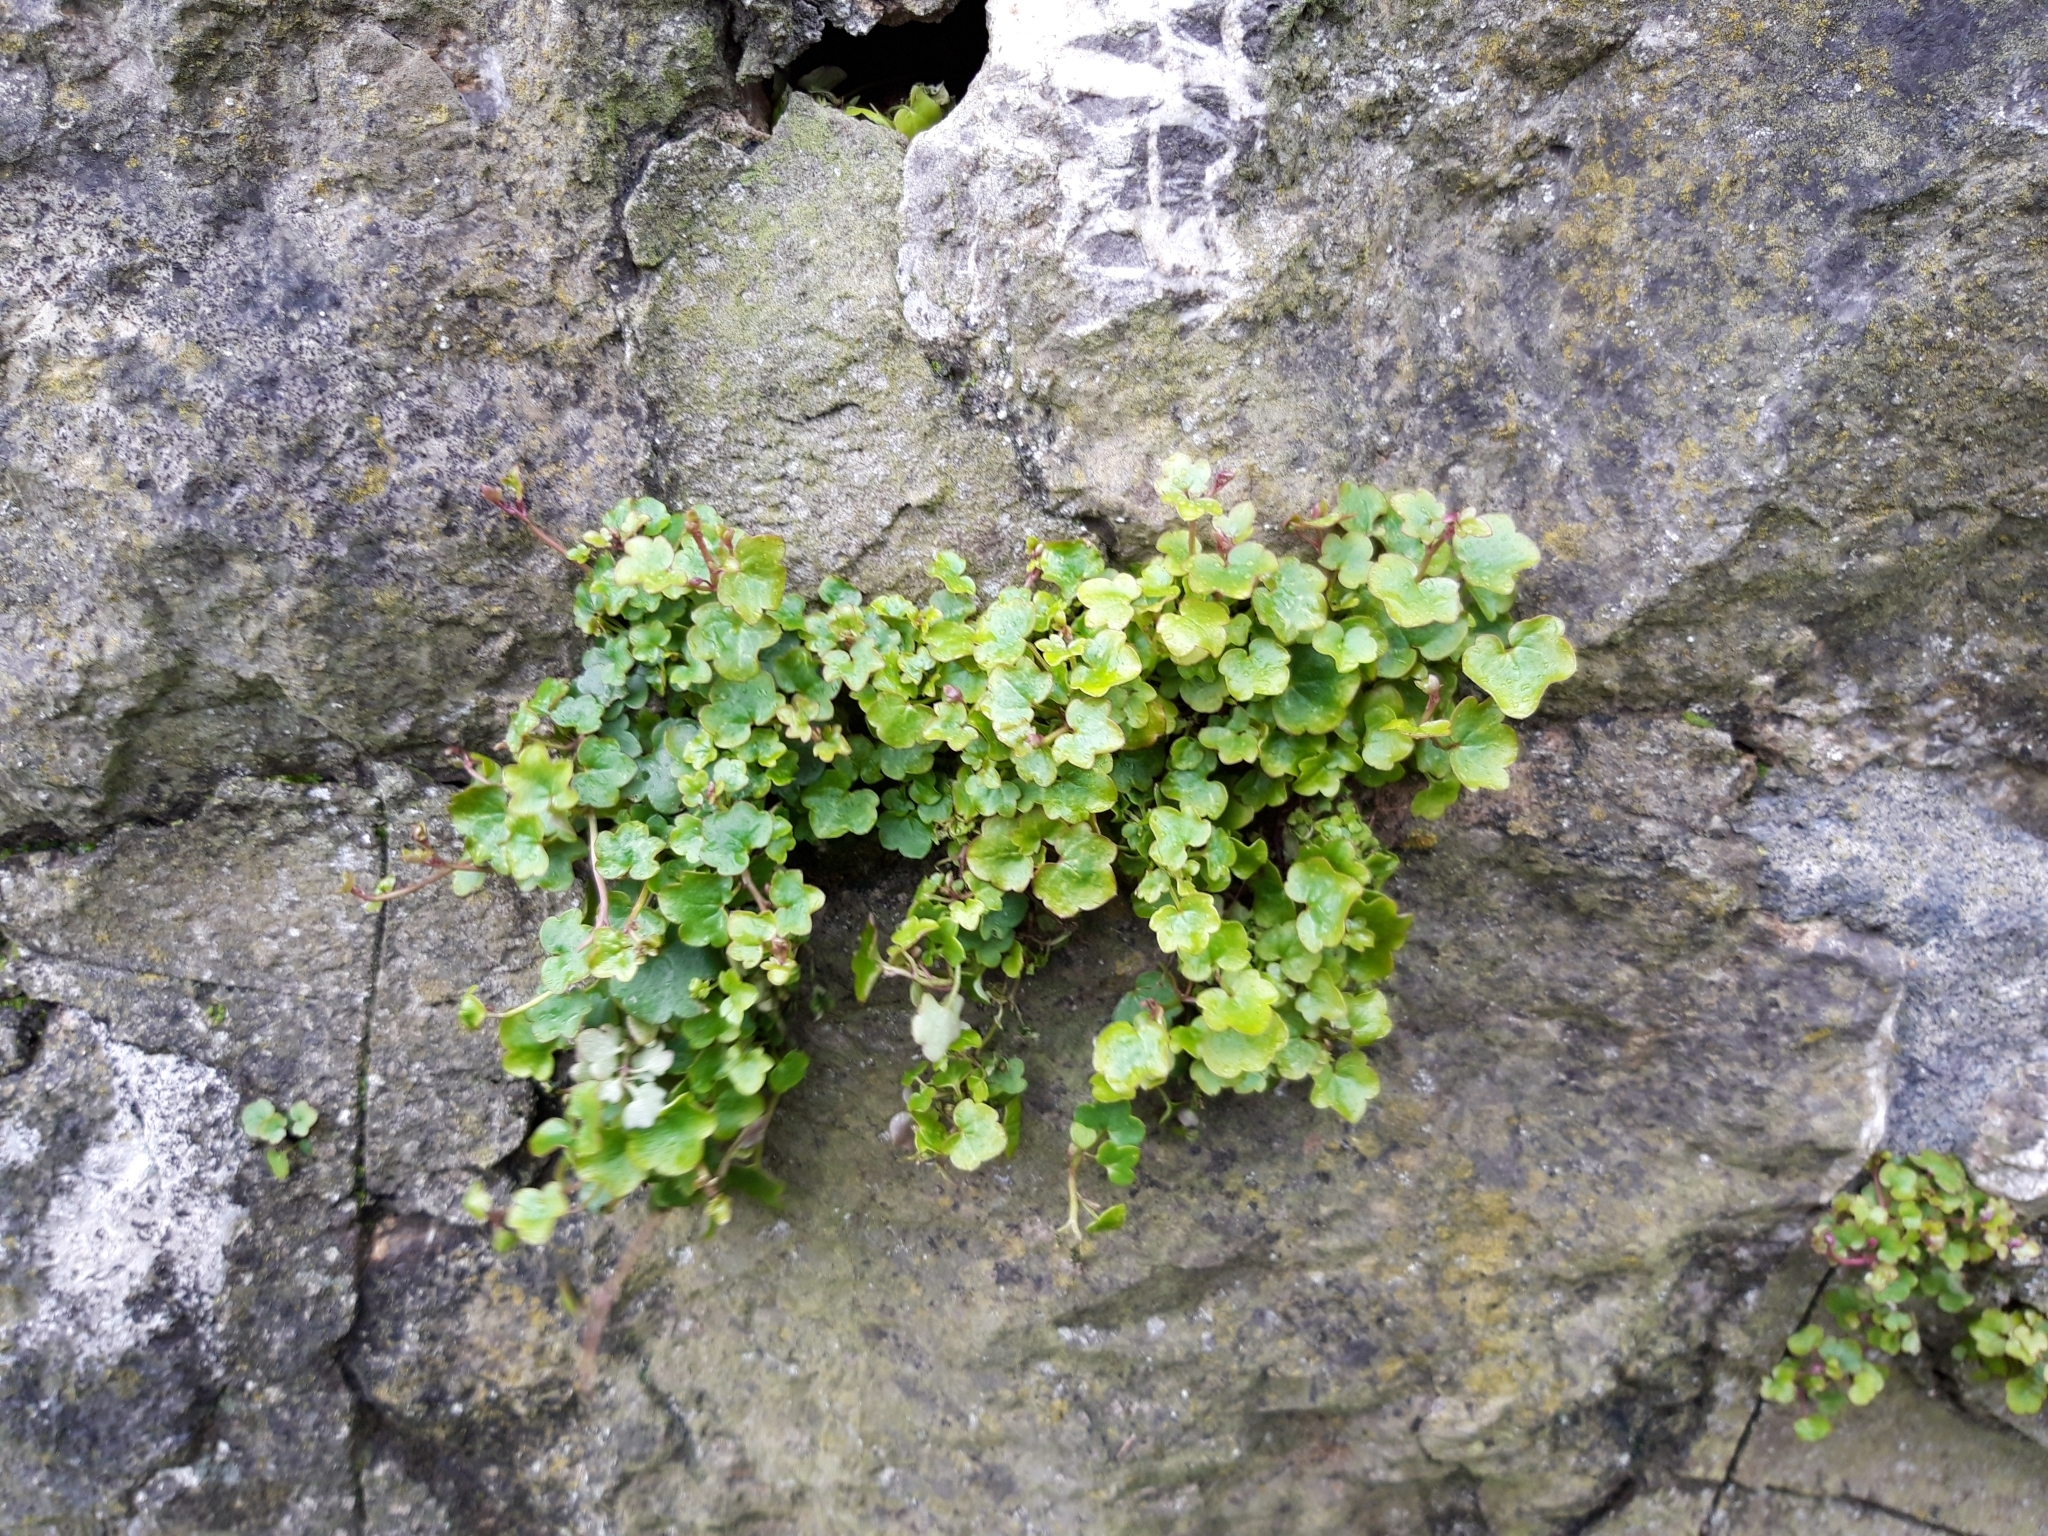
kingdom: Plantae
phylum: Tracheophyta
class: Magnoliopsida
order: Lamiales
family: Plantaginaceae
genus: Cymbalaria
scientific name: Cymbalaria muralis
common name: Ivy-leaved toadflax
